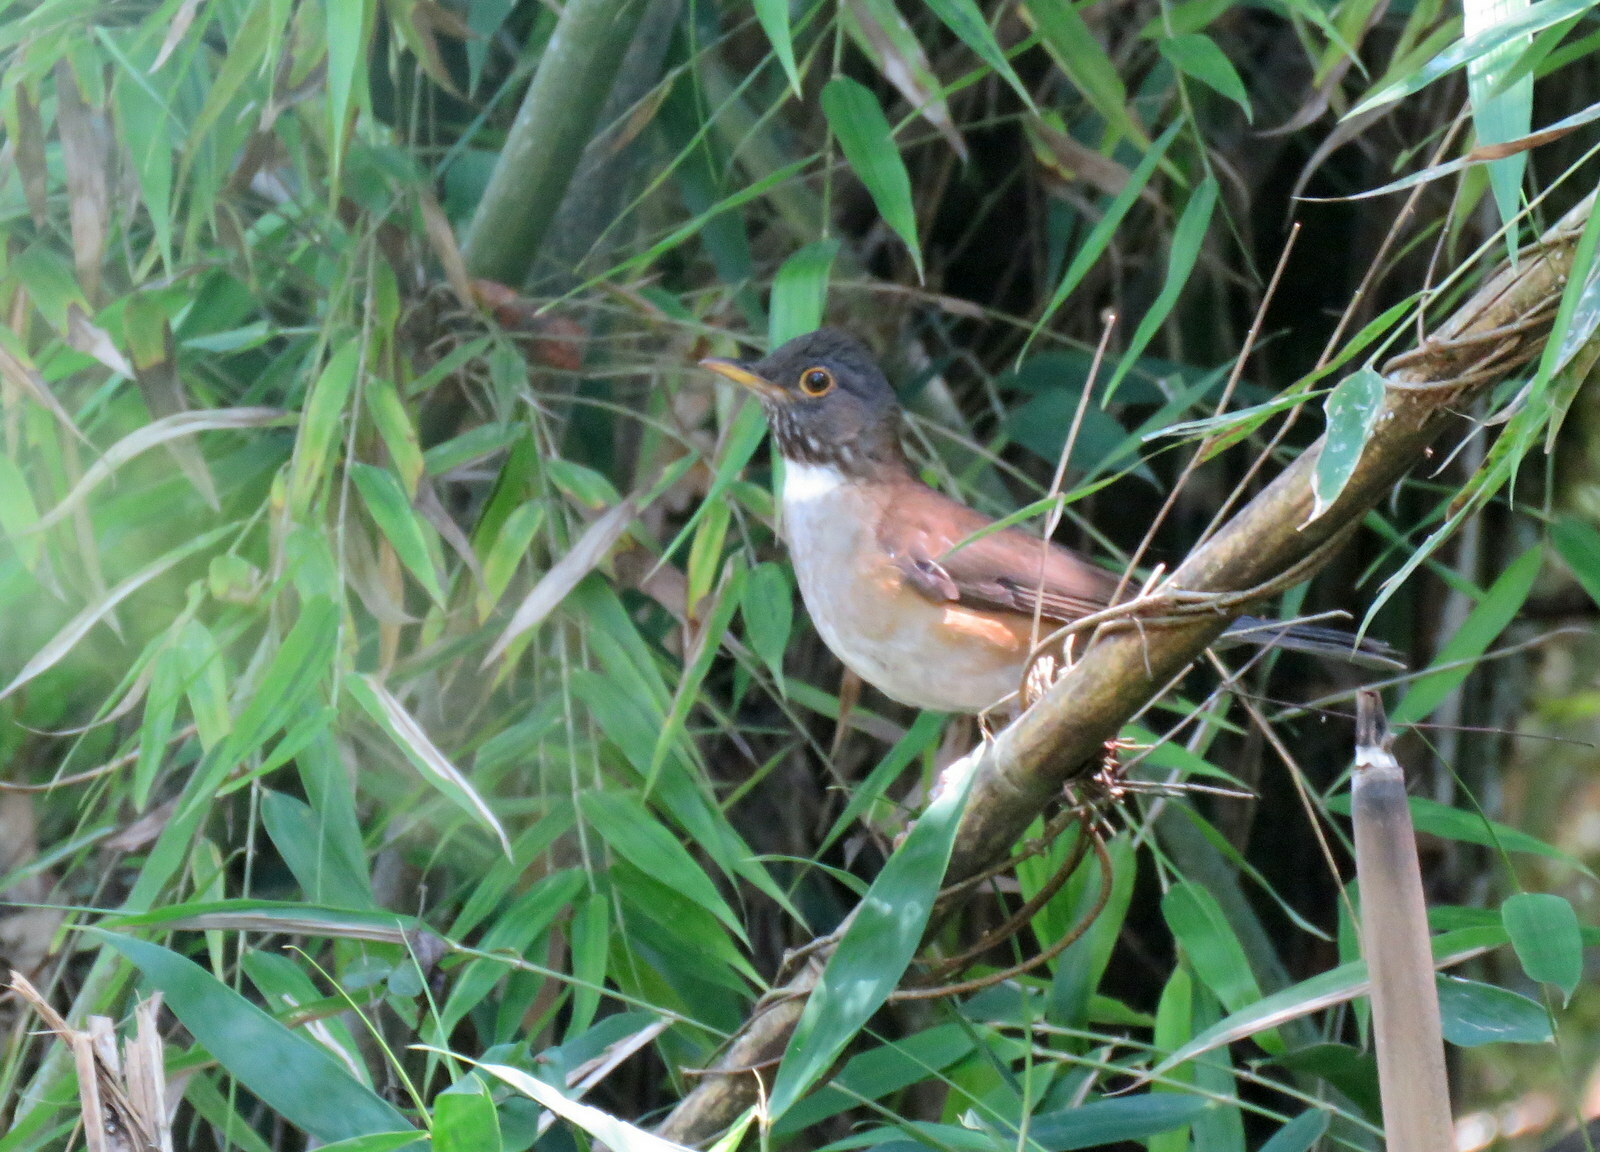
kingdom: Animalia
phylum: Chordata
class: Aves
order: Passeriformes
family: Turdidae
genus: Turdus
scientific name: Turdus albicollis
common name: White-necked thrush
